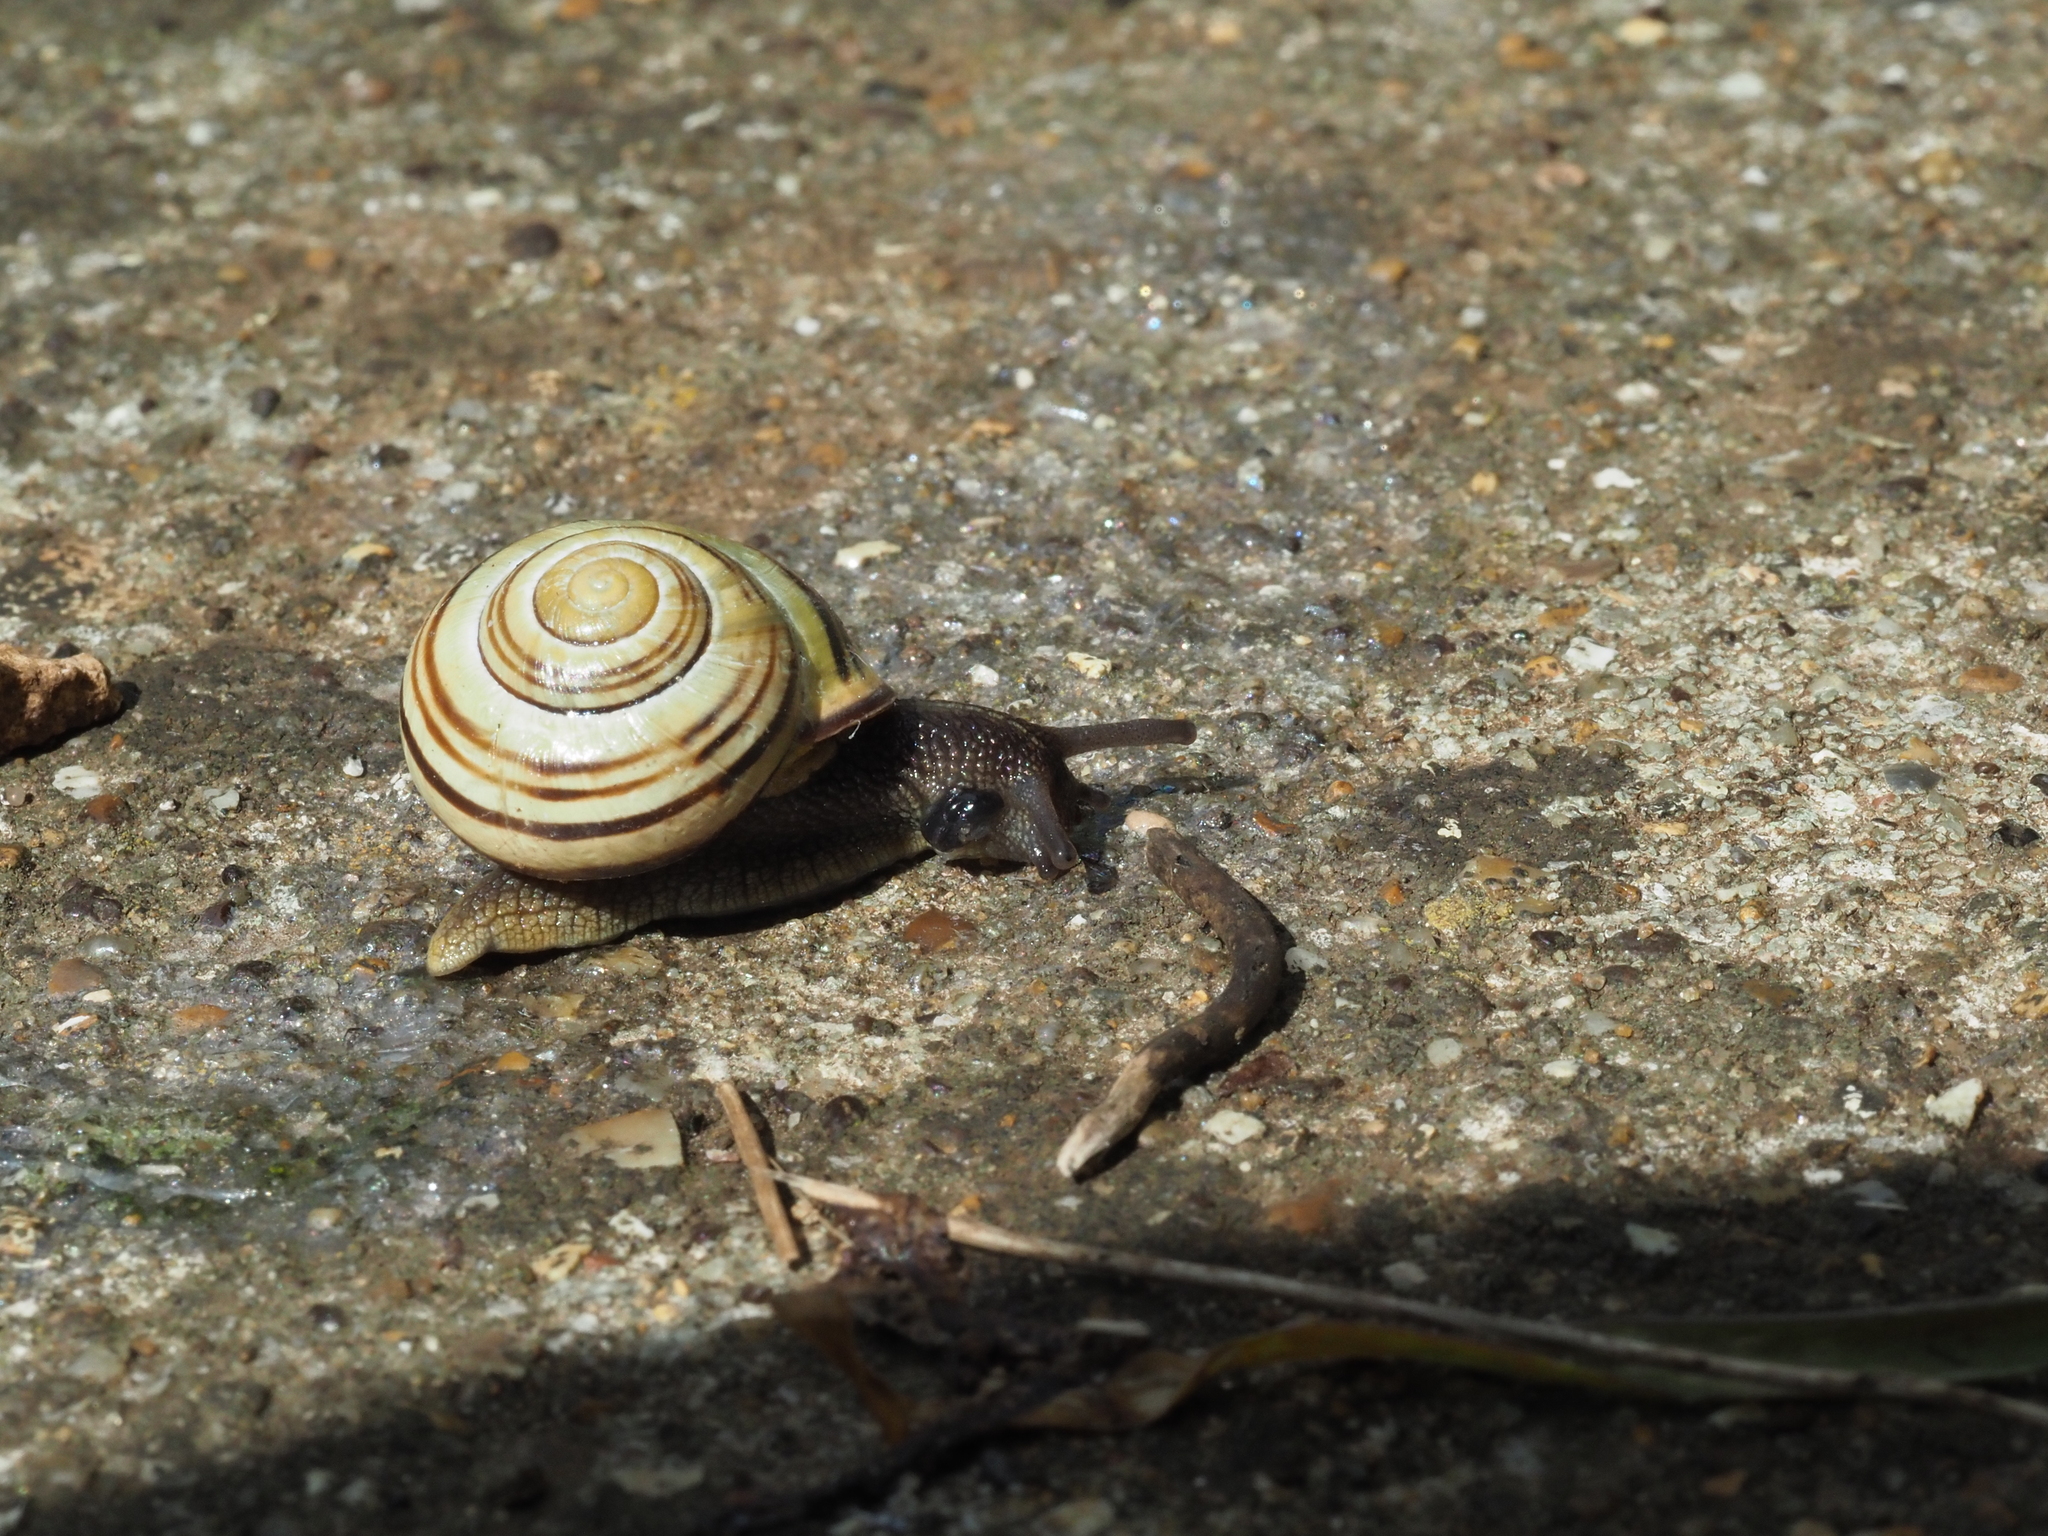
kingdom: Animalia
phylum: Mollusca
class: Gastropoda
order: Stylommatophora
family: Helicidae
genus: Cepaea
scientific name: Cepaea nemoralis
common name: Grovesnail
